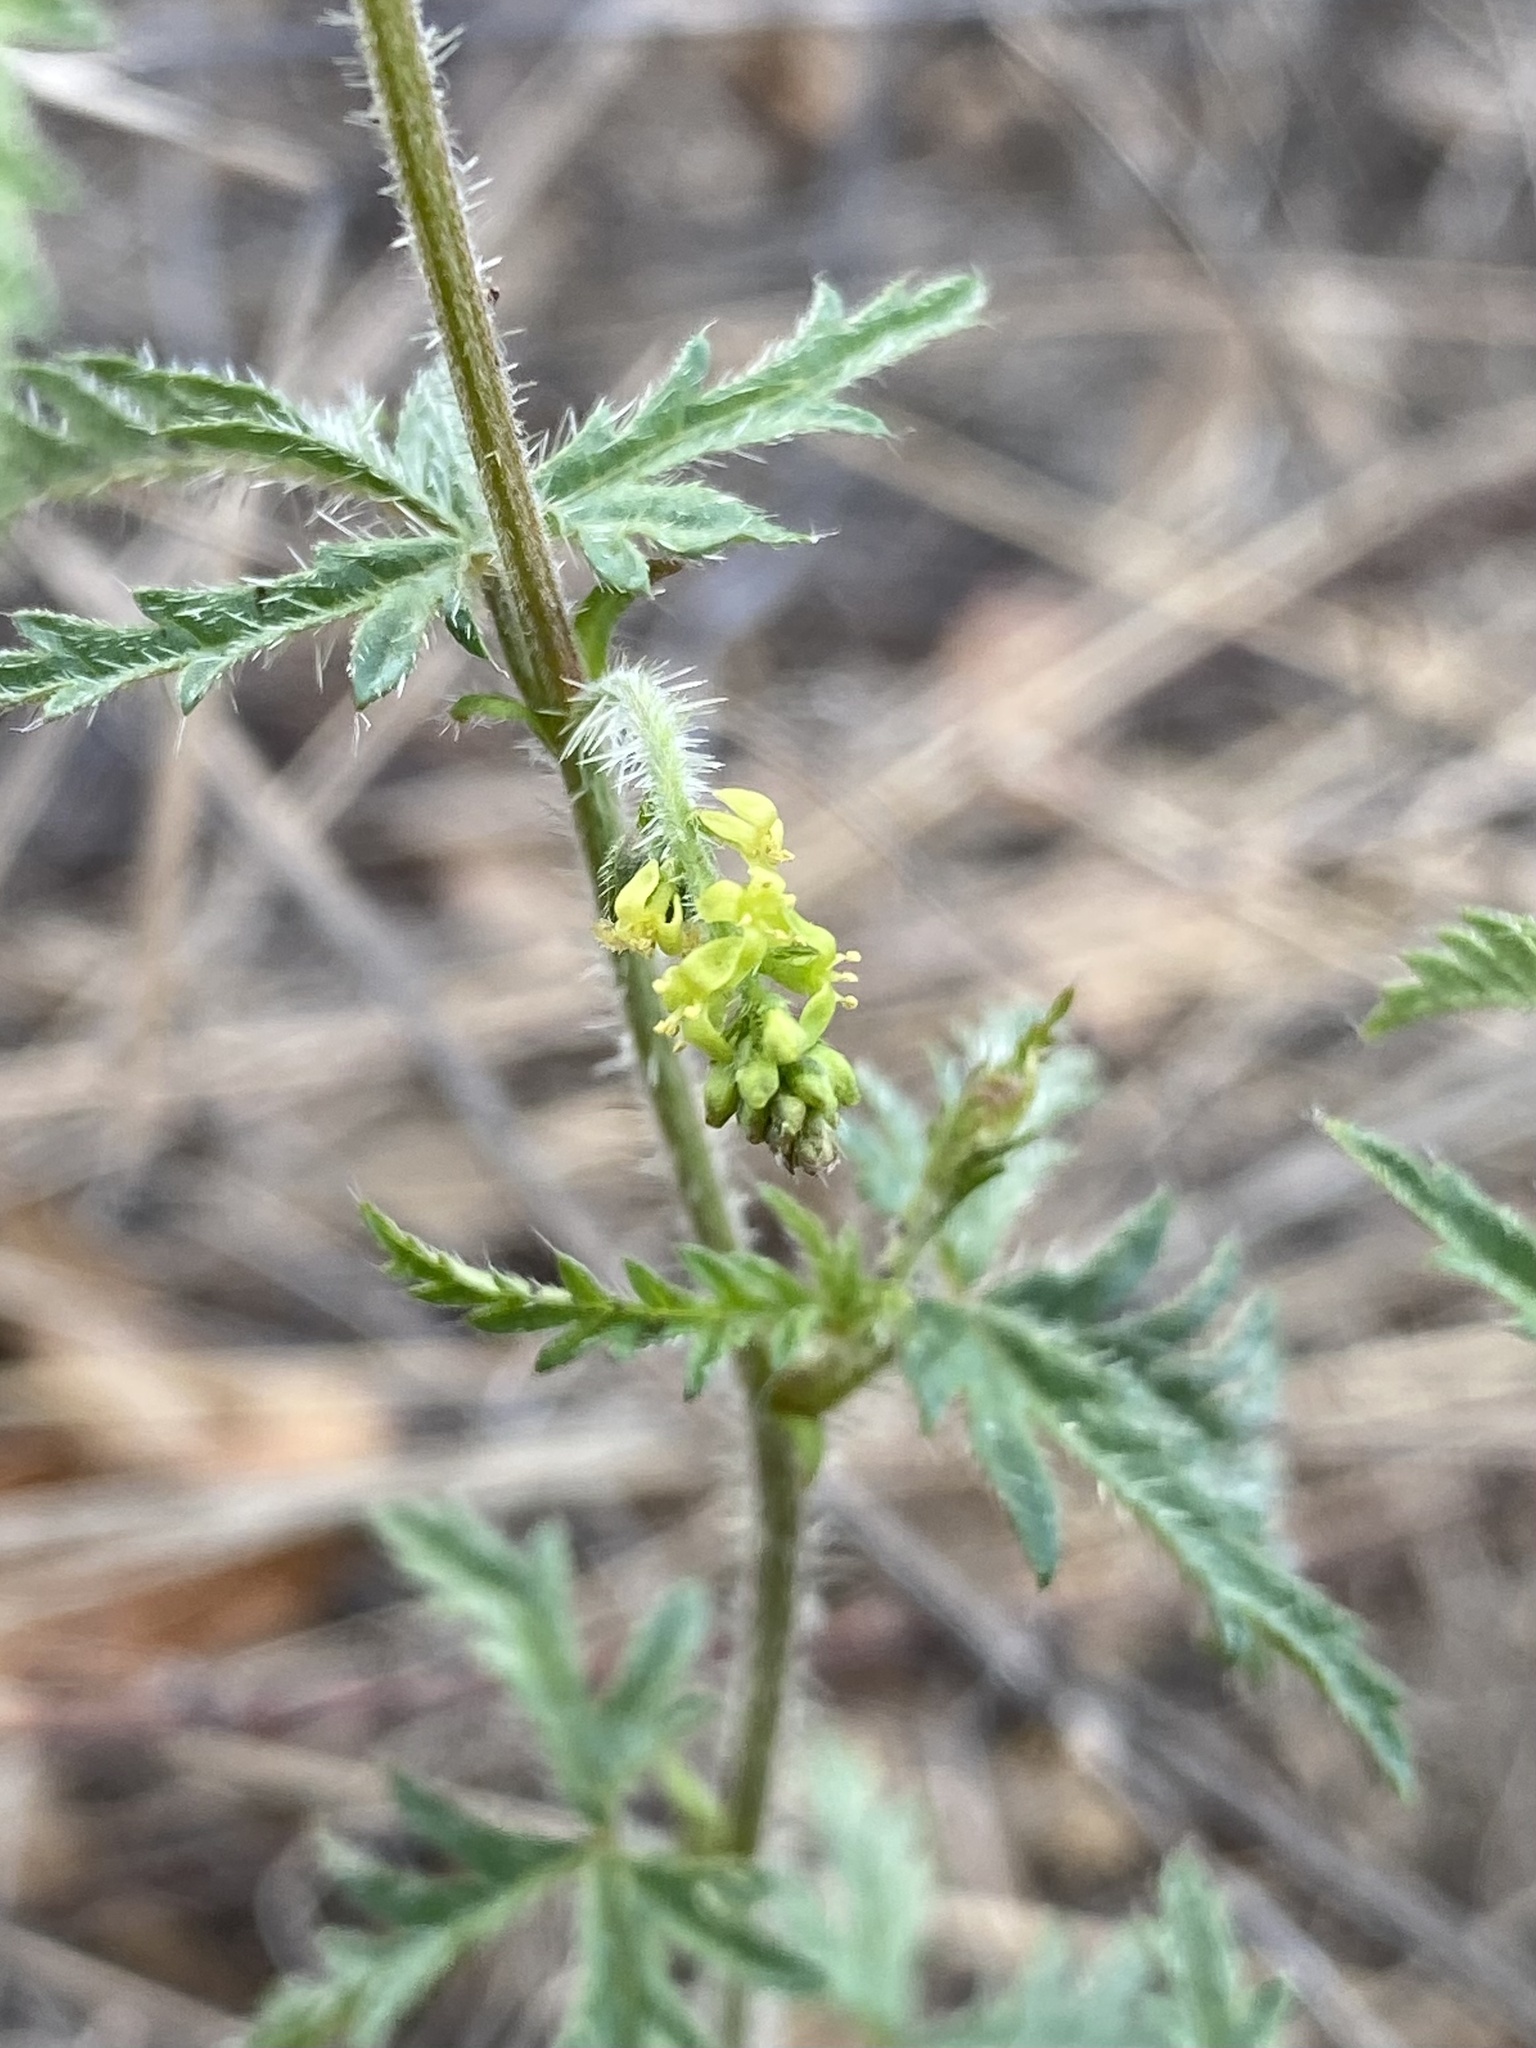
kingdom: Plantae
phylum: Tracheophyta
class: Magnoliopsida
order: Malpighiales
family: Euphorbiaceae
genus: Tragia
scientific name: Tragia laciniata
